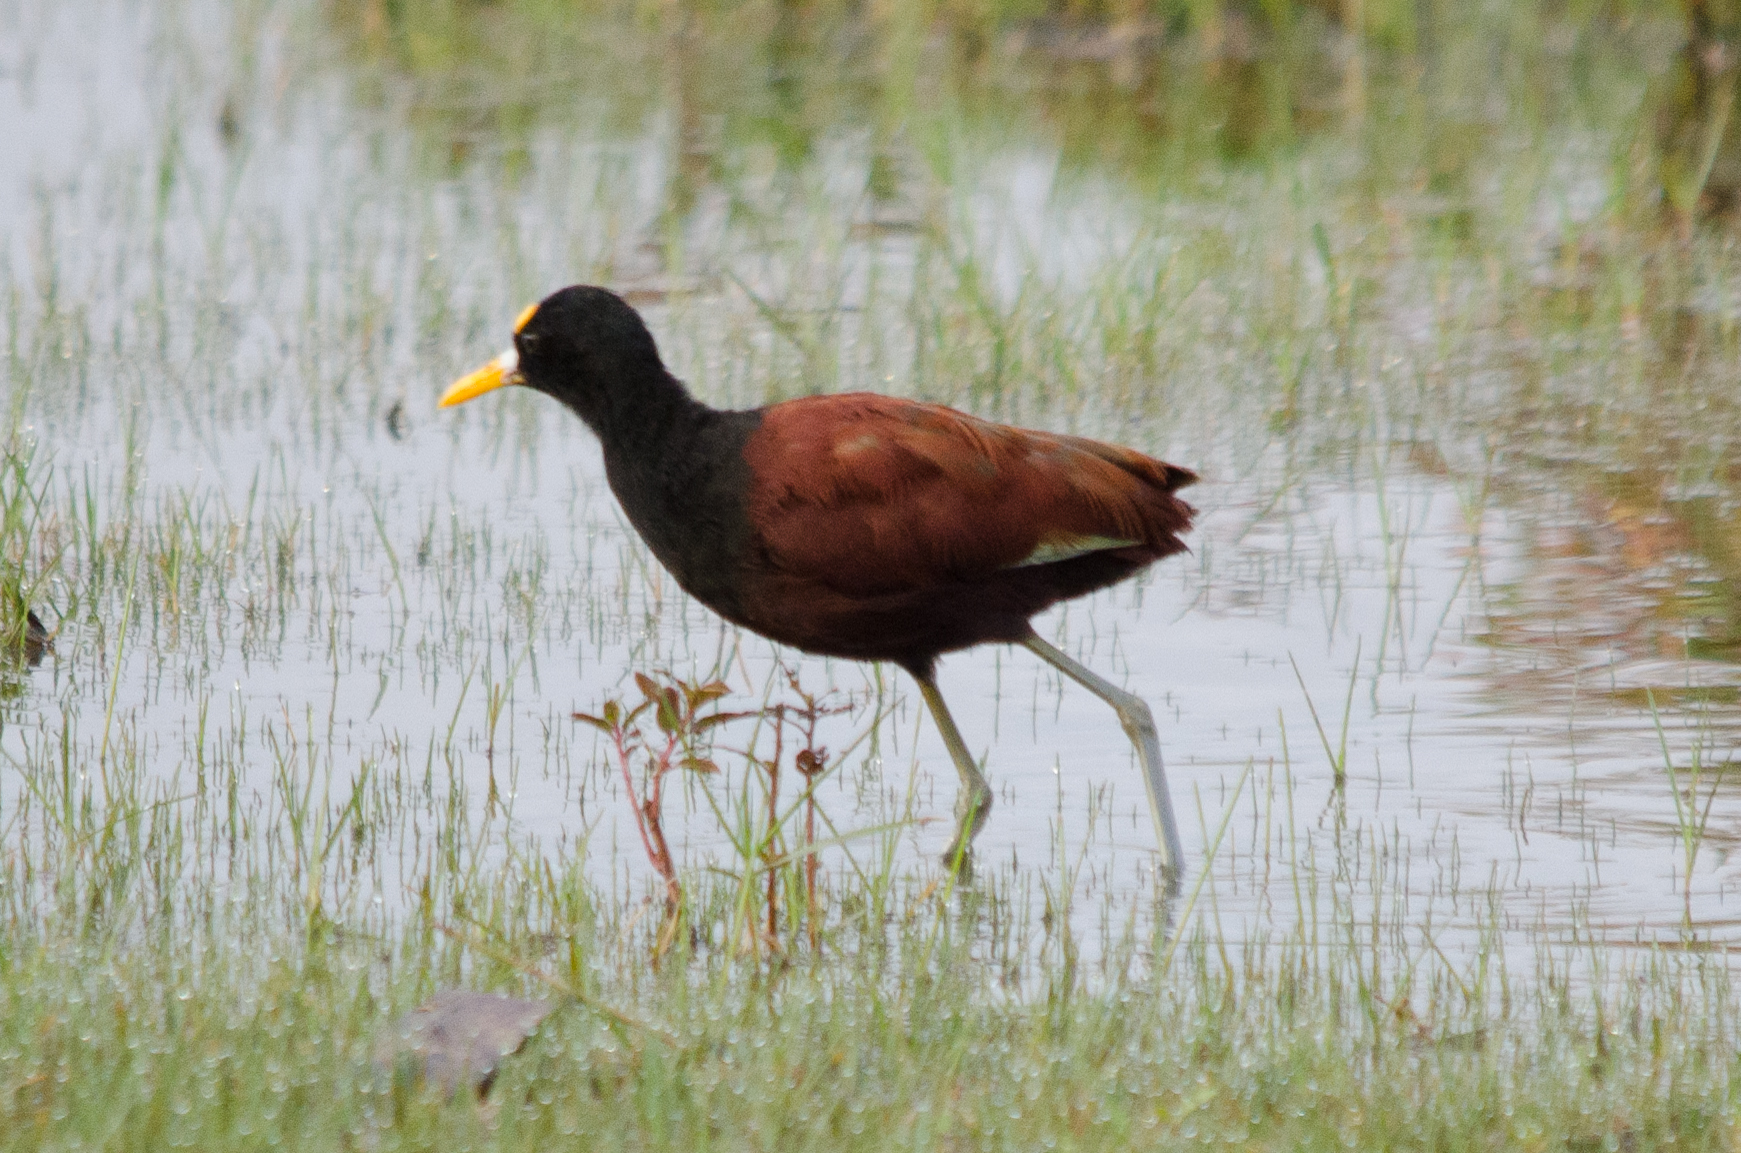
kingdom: Animalia
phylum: Chordata
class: Aves
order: Charadriiformes
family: Jacanidae
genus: Jacana
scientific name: Jacana spinosa
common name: Northern jacana
